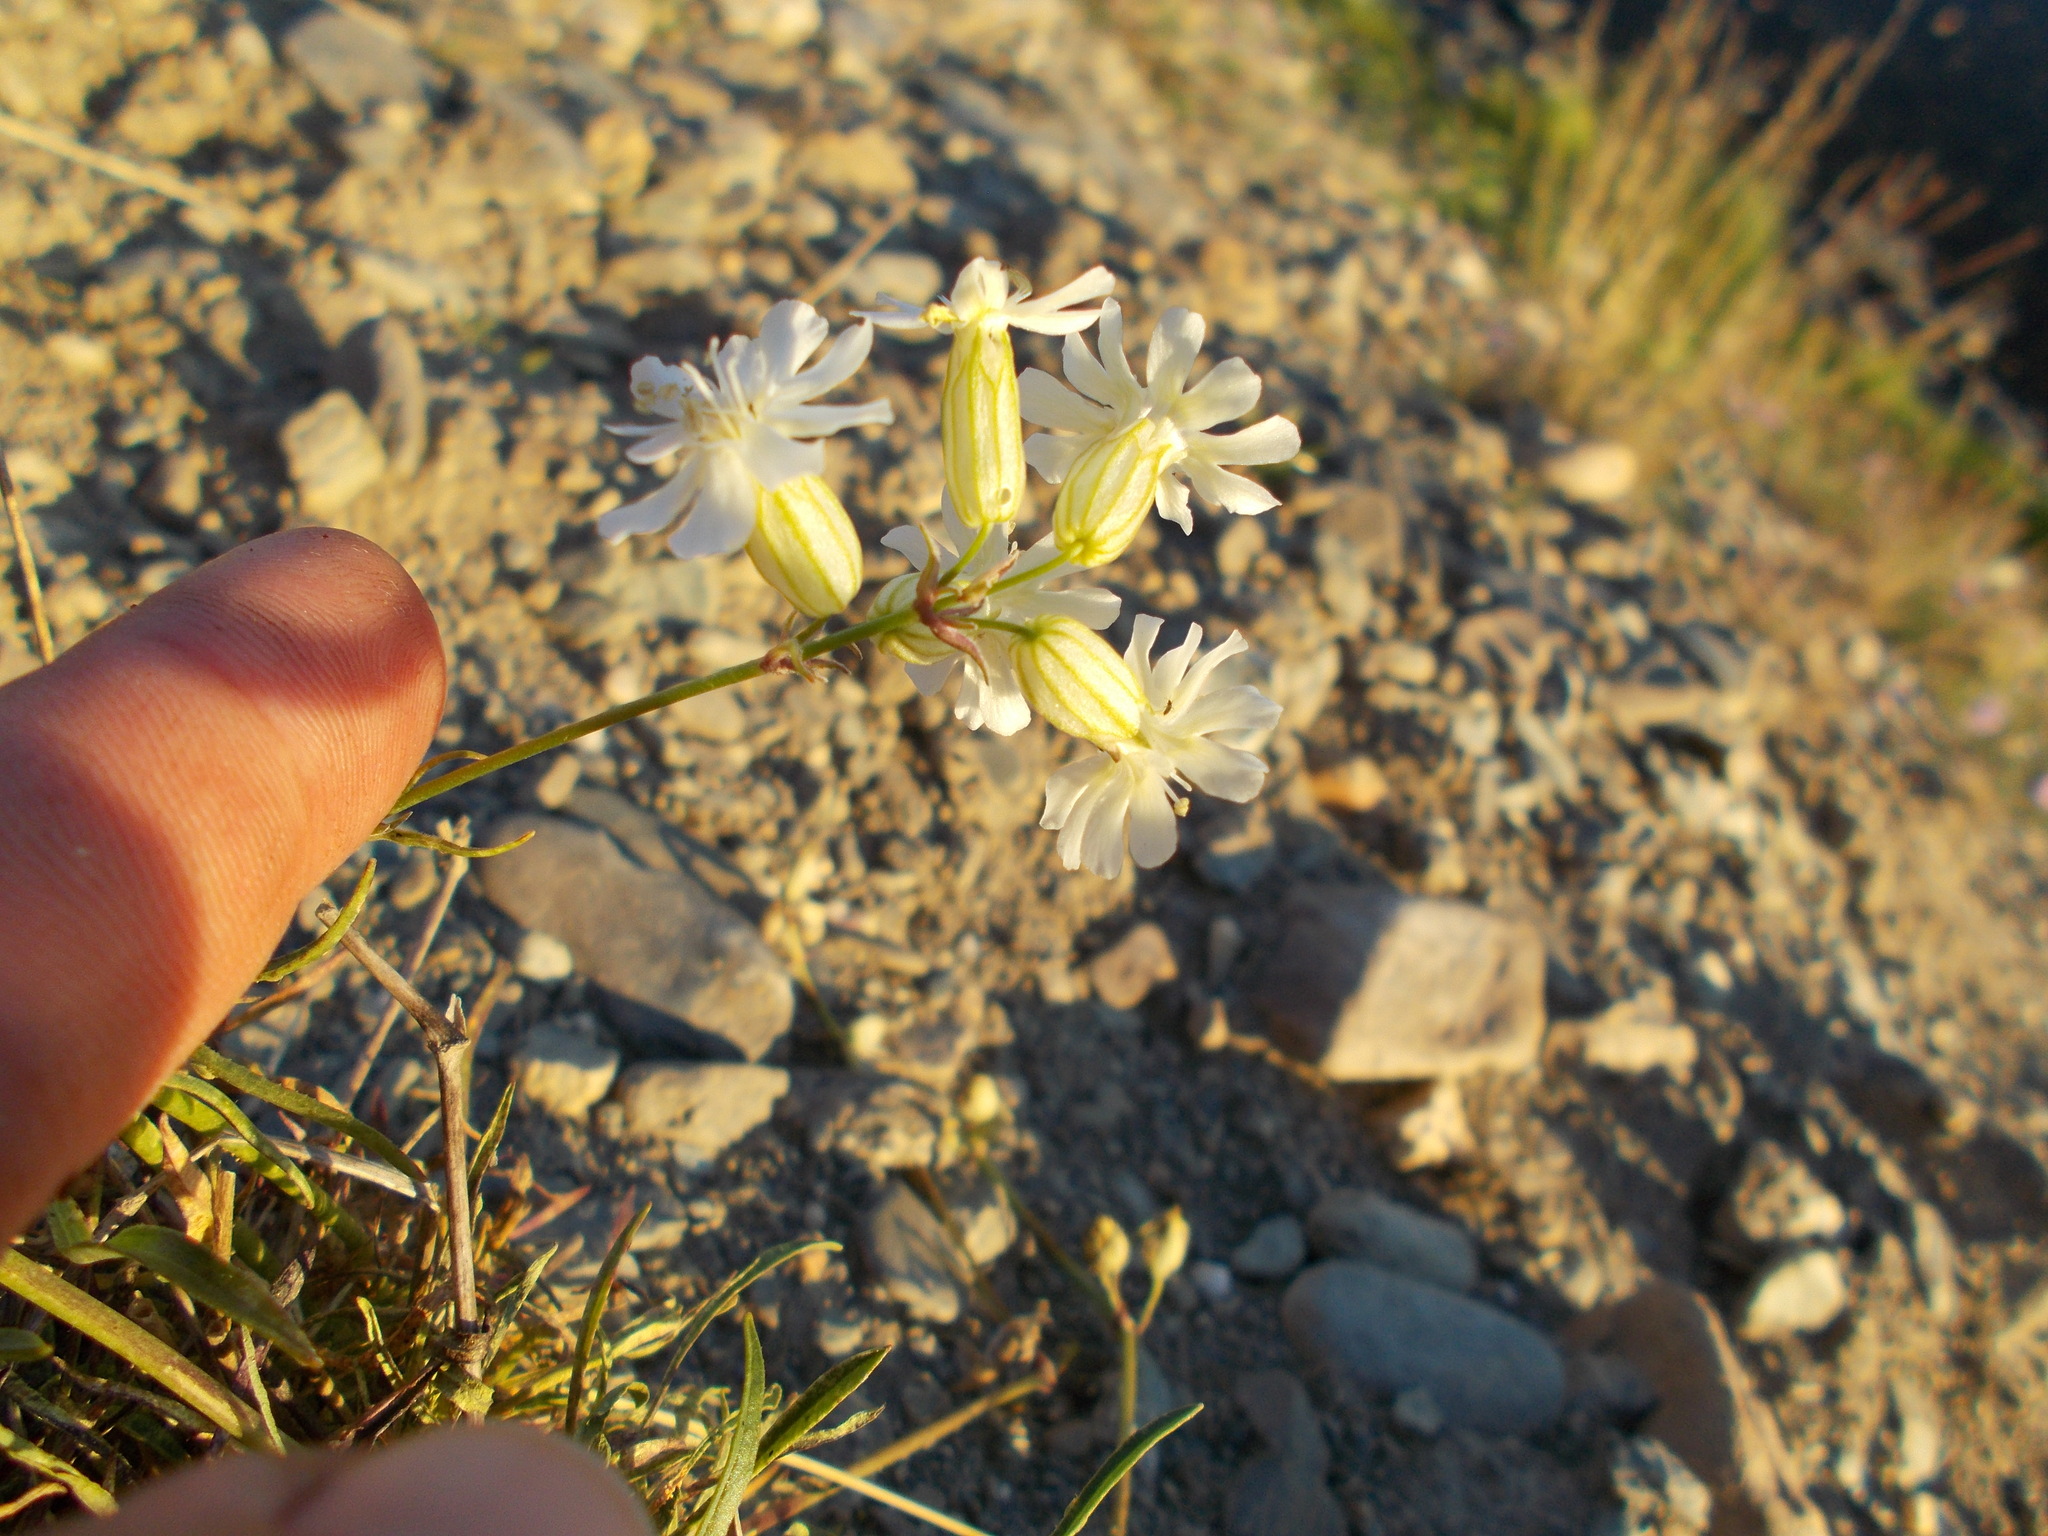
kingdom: Plantae
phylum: Tracheophyta
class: Magnoliopsida
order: Caryophyllales
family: Caryophyllaceae
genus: Silene
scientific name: Silene chamarensis
